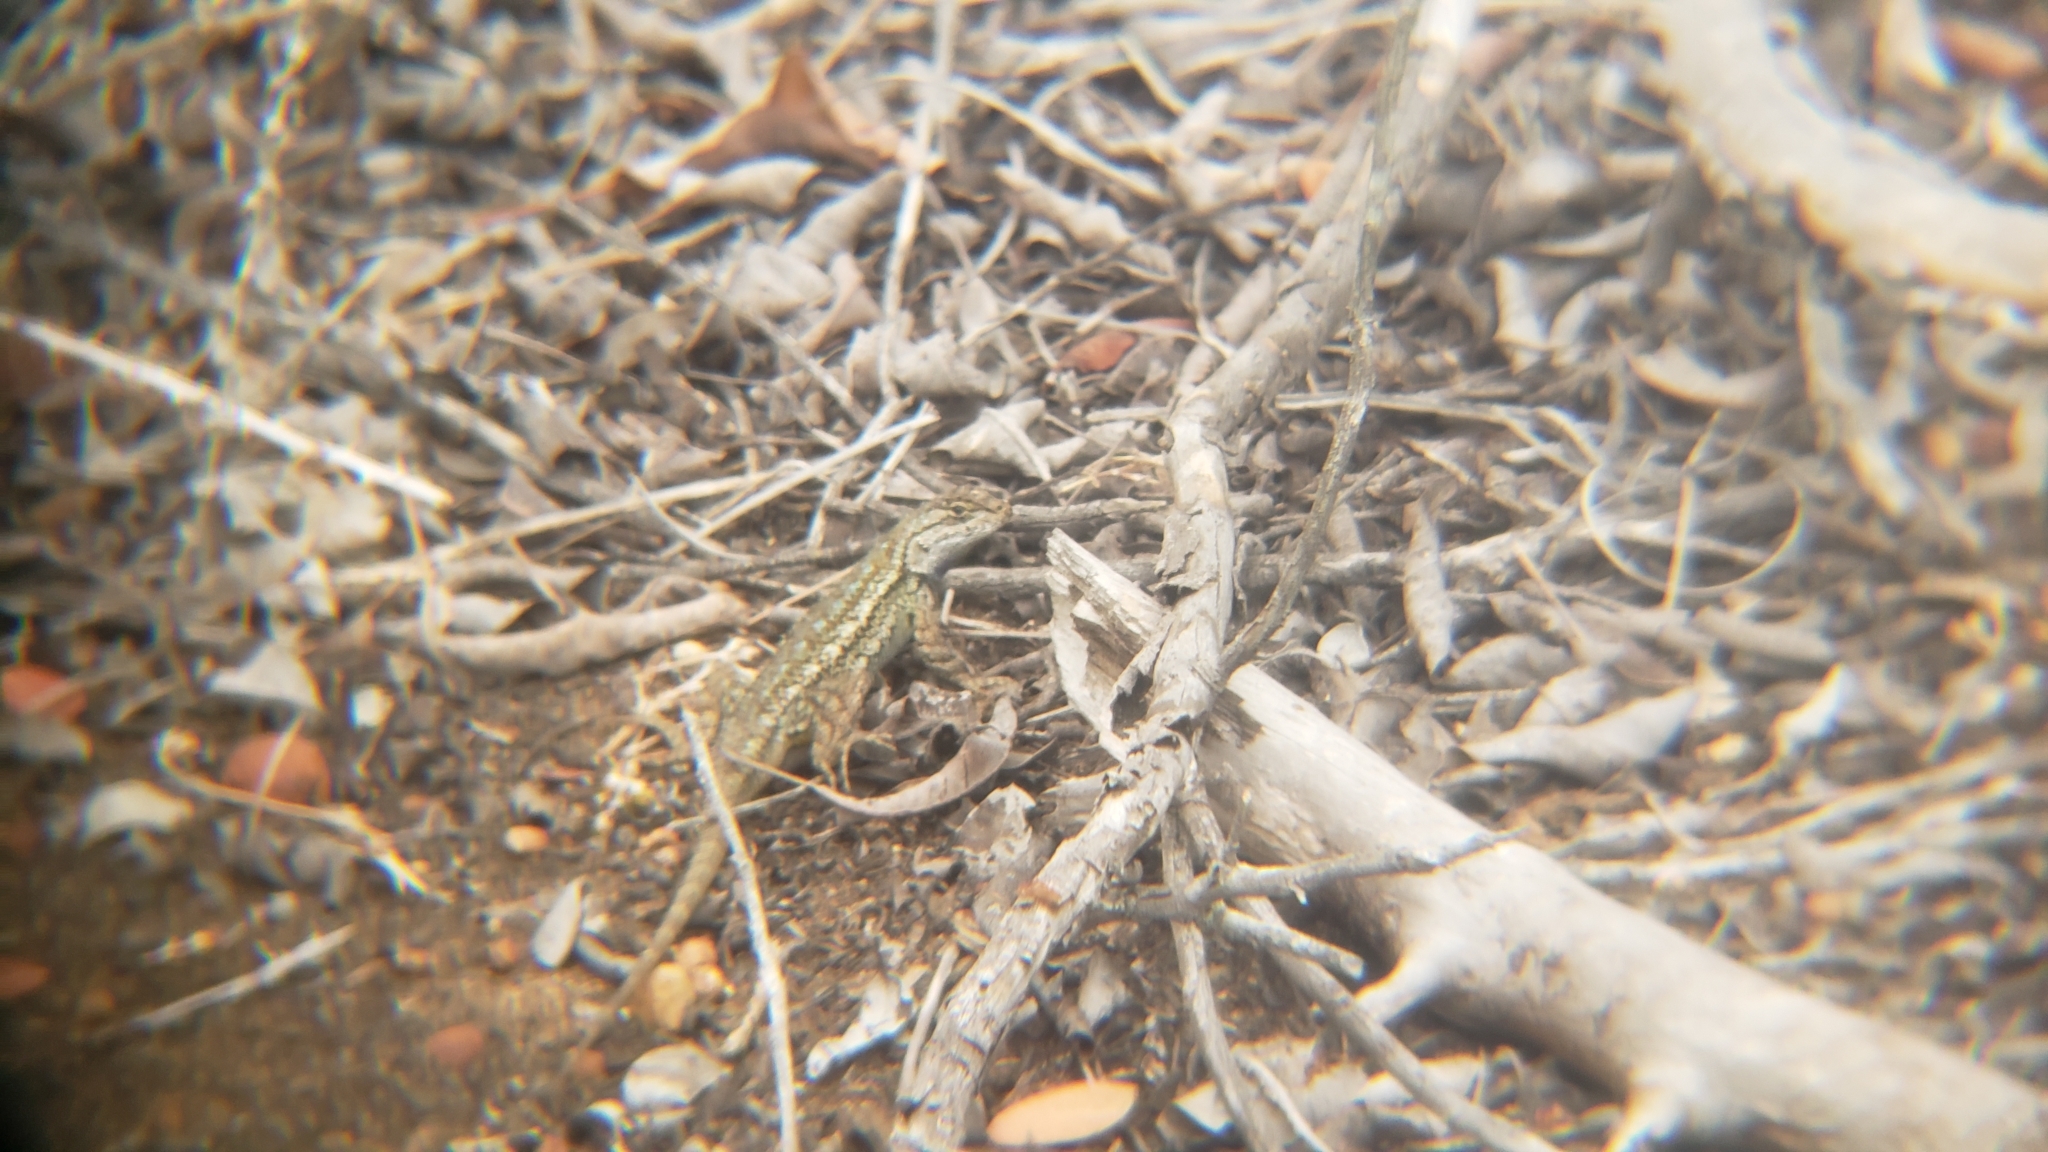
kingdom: Animalia
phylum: Chordata
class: Squamata
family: Phrynosomatidae
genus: Uta
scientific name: Uta stansburiana
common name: Side-blotched lizard
